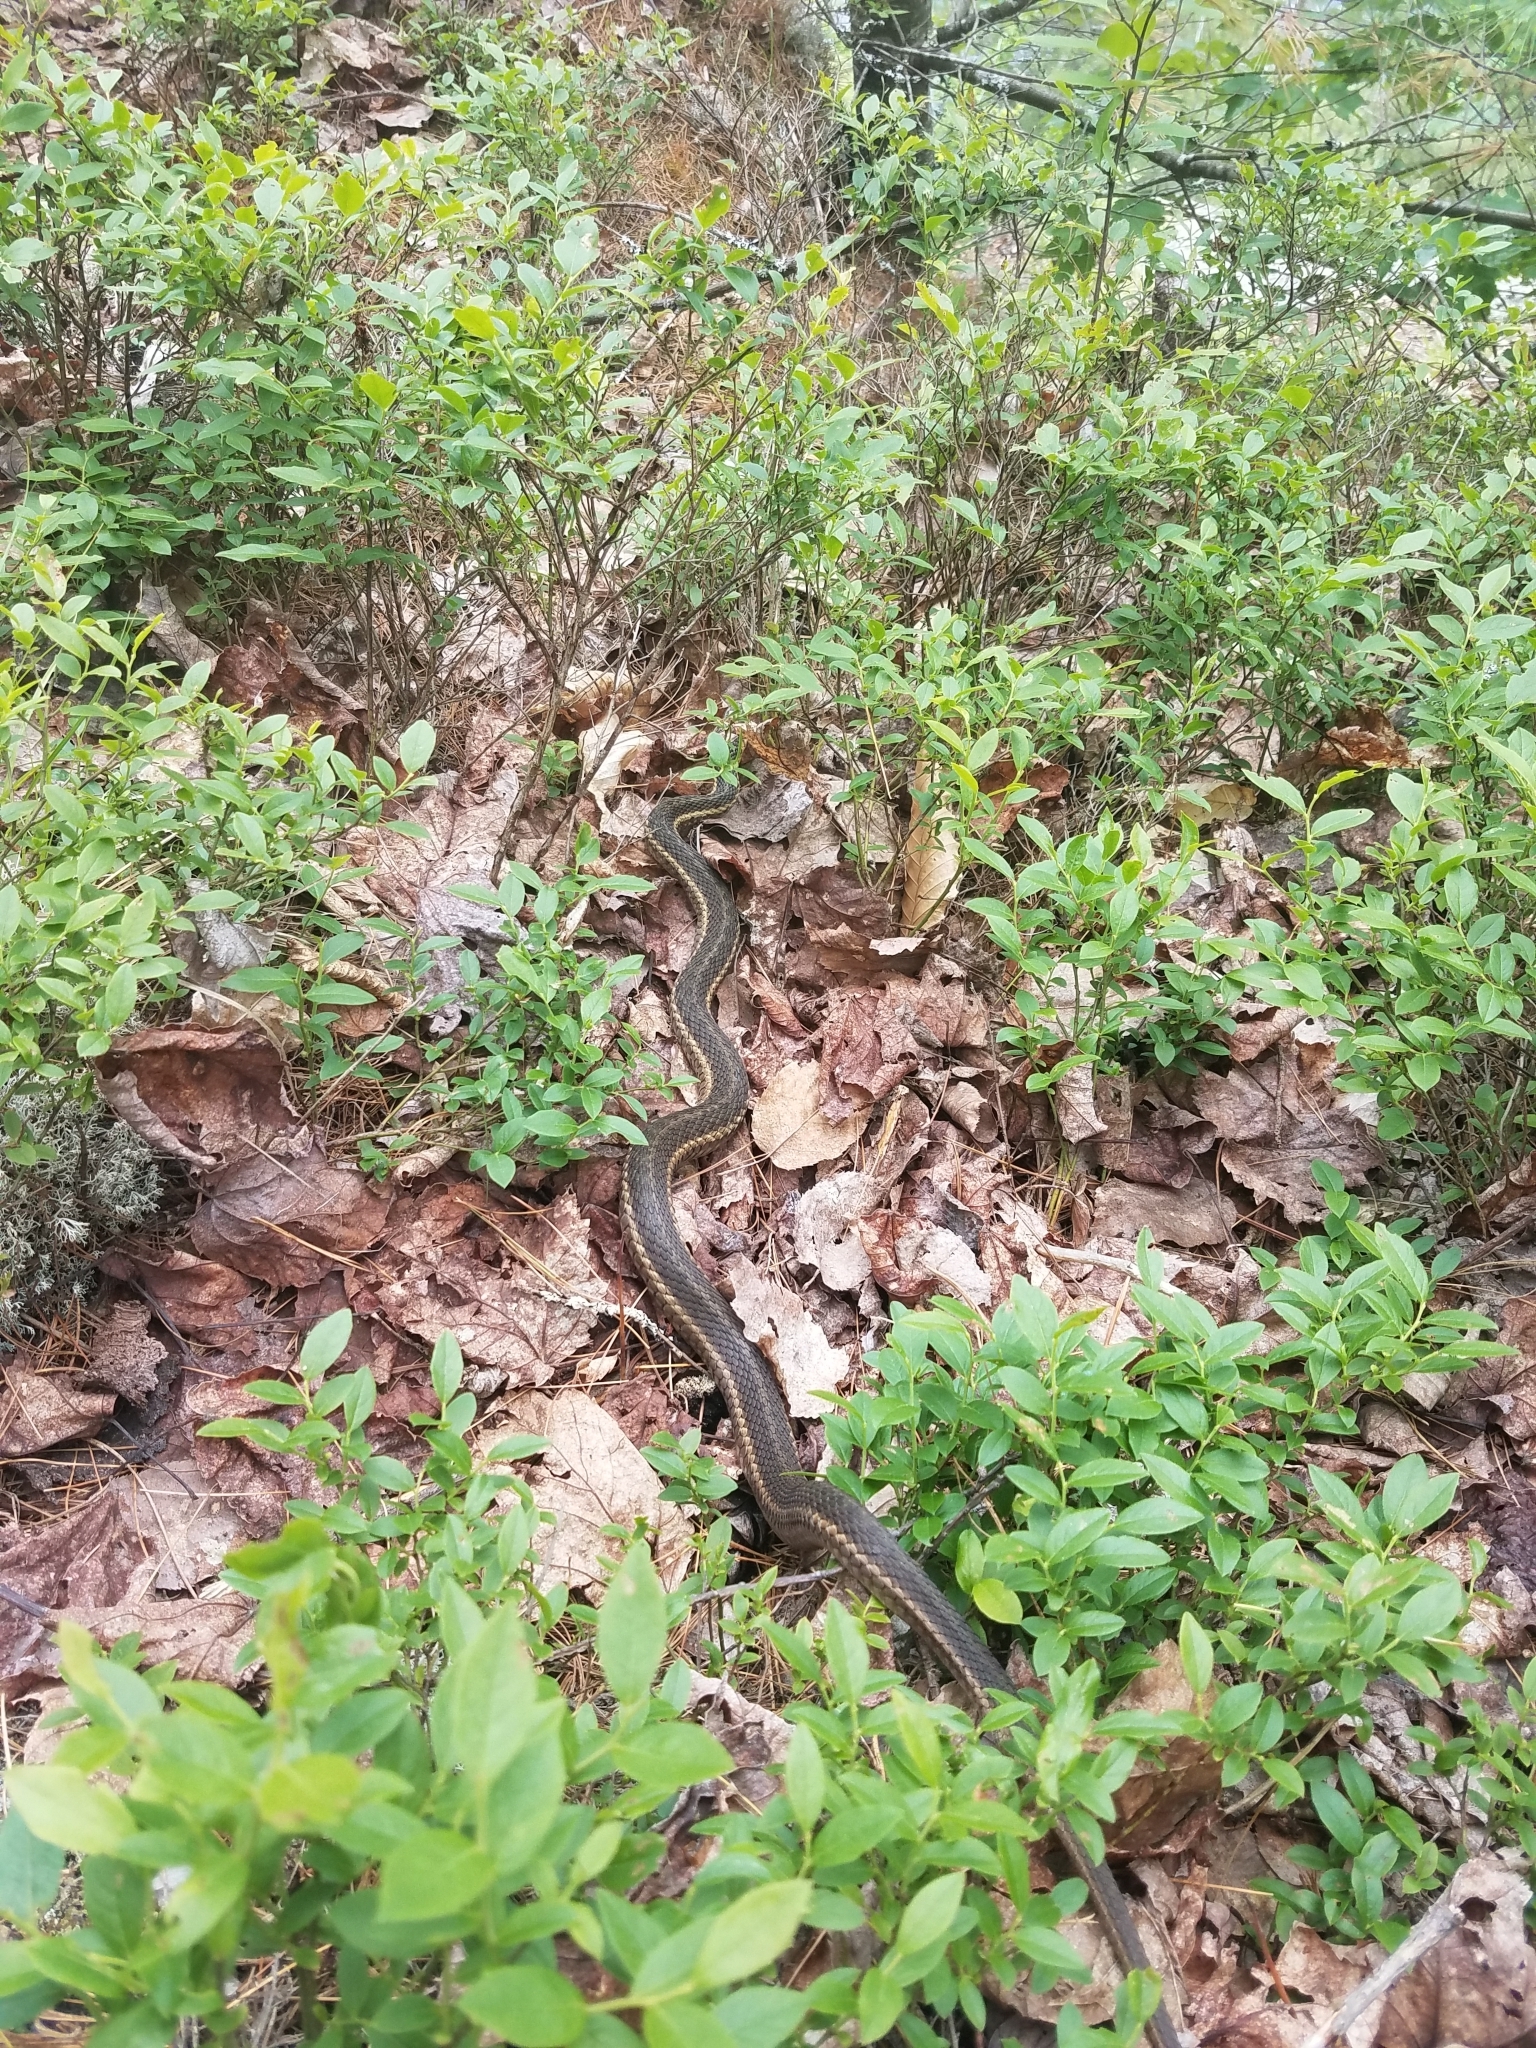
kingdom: Animalia
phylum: Chordata
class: Squamata
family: Colubridae
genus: Thamnophis
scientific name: Thamnophis sirtalis
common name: Common garter snake
